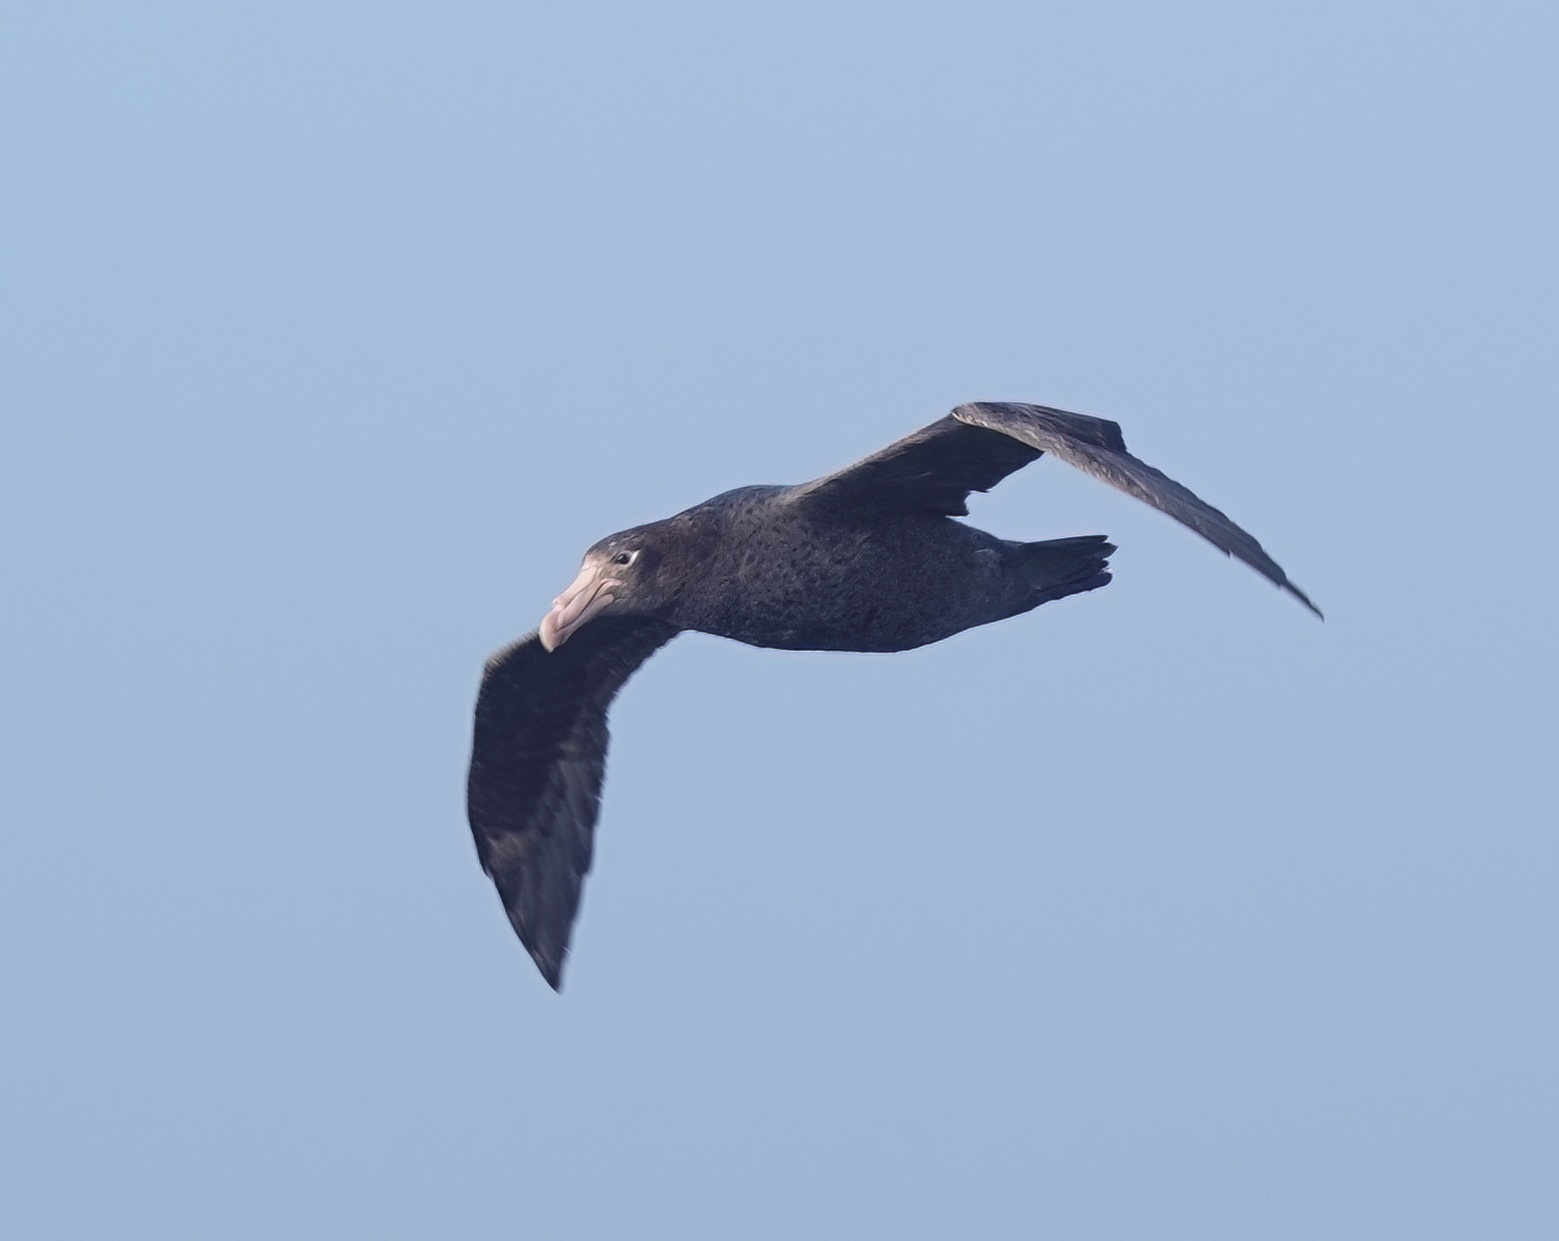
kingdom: Animalia
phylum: Chordata
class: Aves
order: Procellariiformes
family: Procellariidae
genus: Macronectes
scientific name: Macronectes halli
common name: Northern giant petrel
